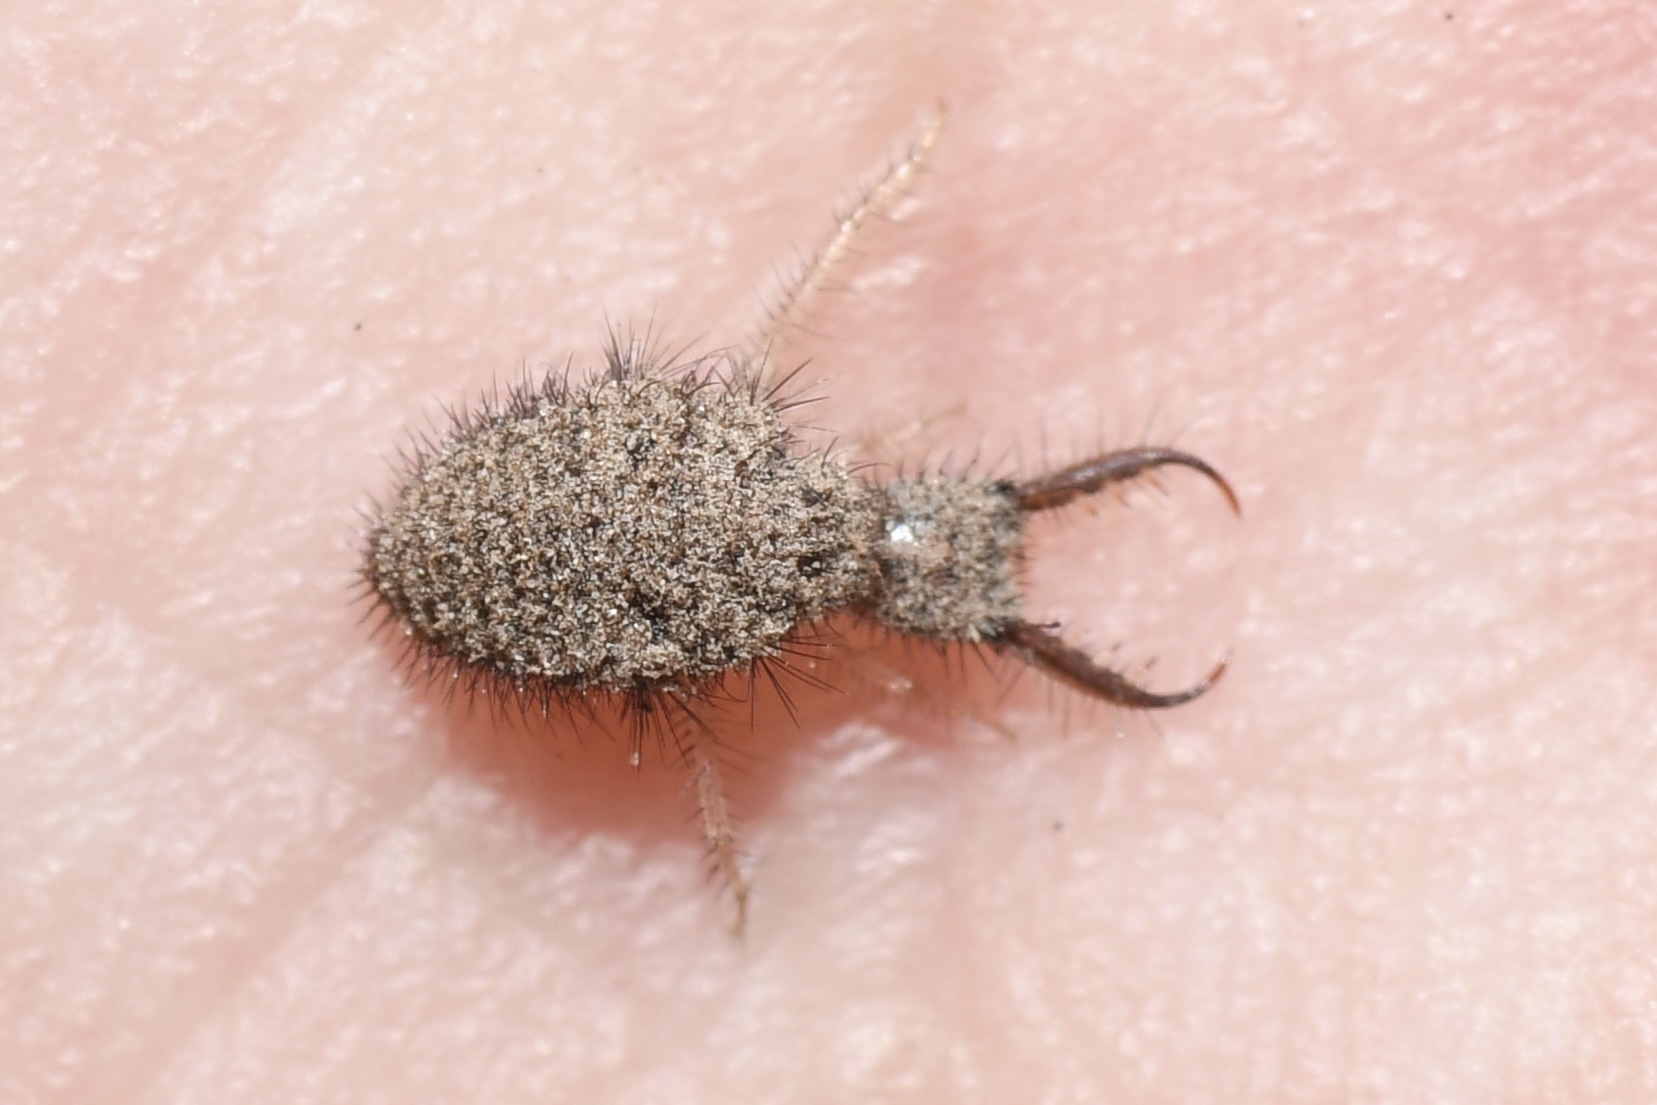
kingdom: Animalia
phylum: Arthropoda
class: Insecta
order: Neuroptera
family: Myrmeleontidae
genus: Myrmeleon
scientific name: Myrmeleon immaculatus
